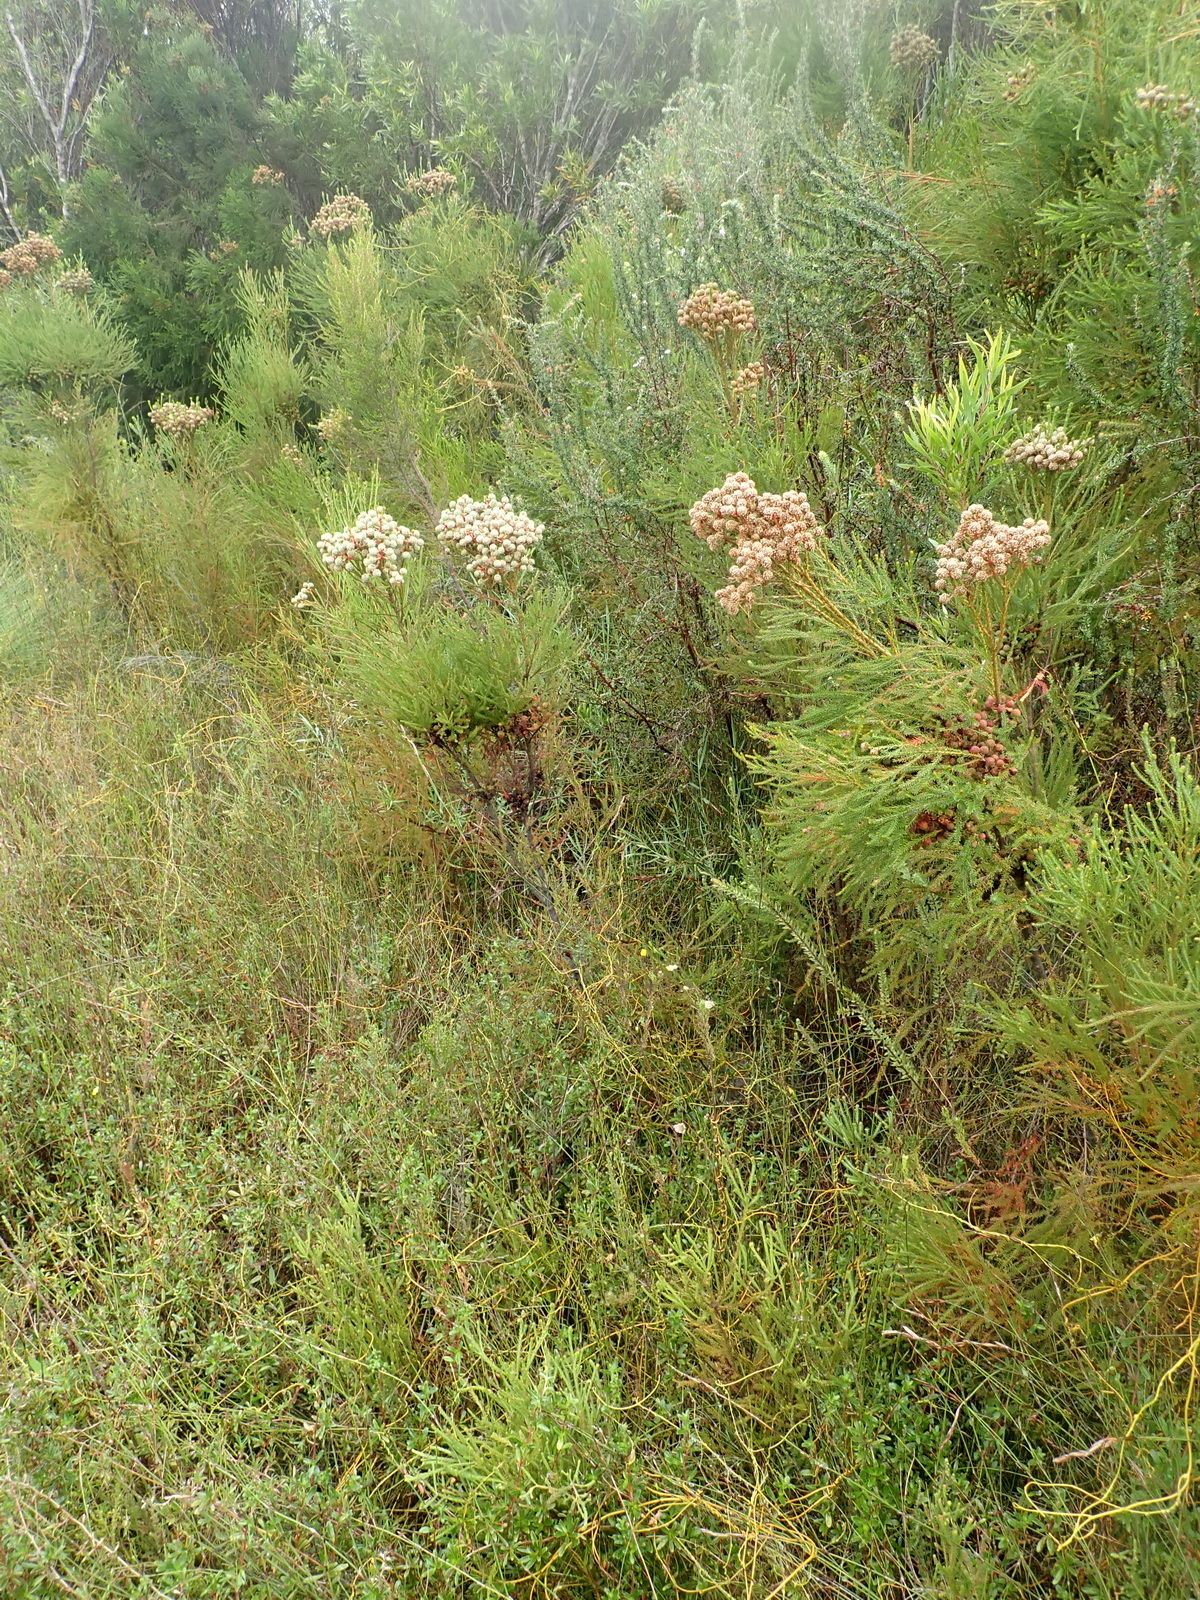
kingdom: Plantae
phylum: Tracheophyta
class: Magnoliopsida
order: Bruniales
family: Bruniaceae
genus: Berzelia
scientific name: Berzelia intermedia
